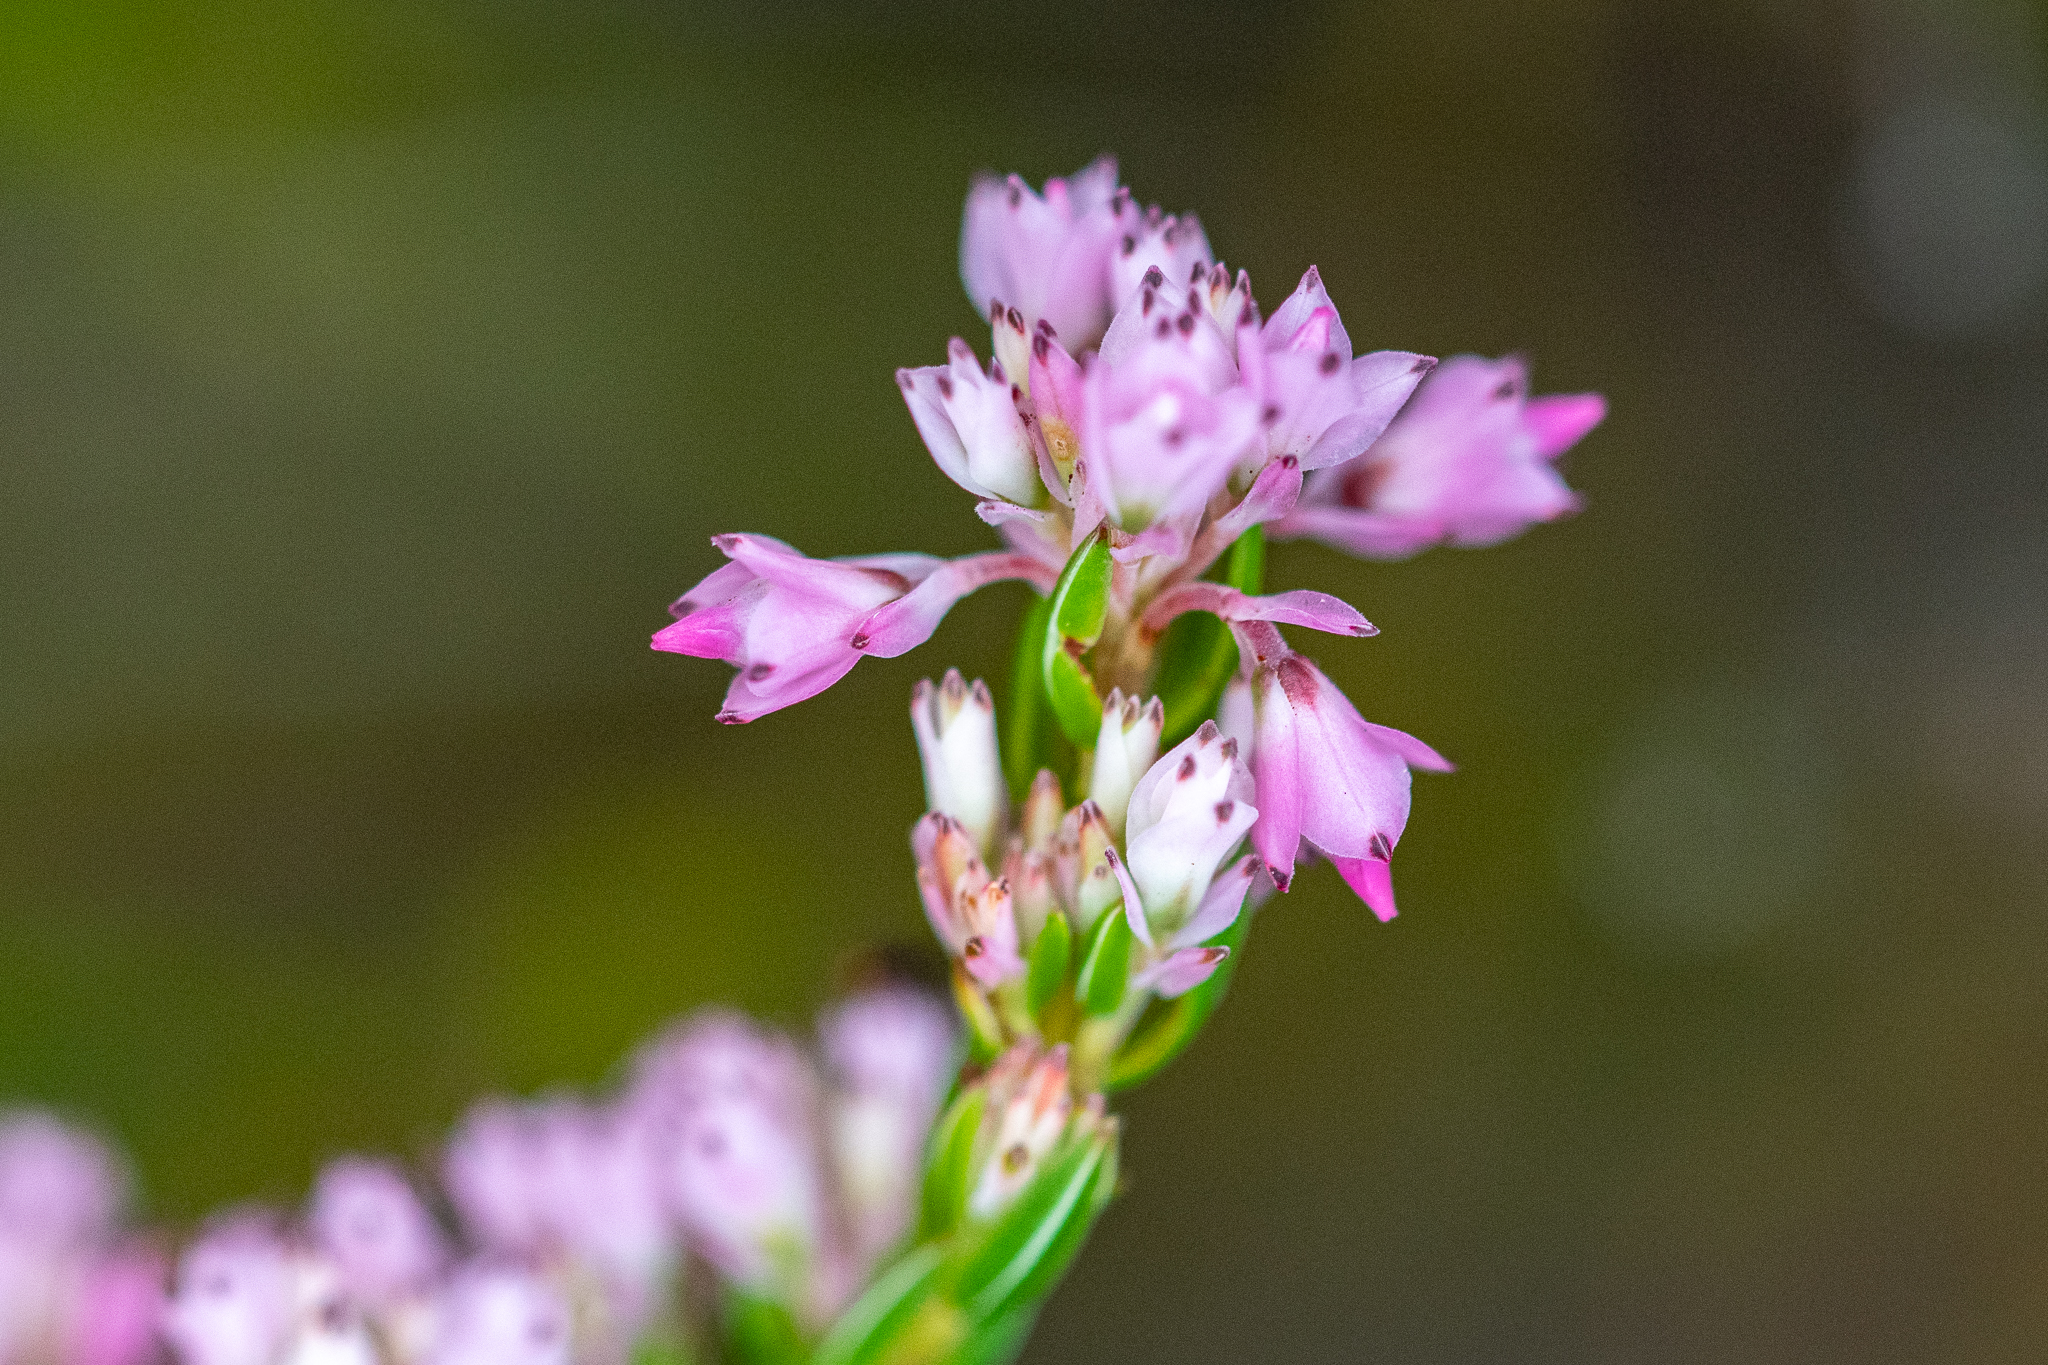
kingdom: Plantae
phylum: Tracheophyta
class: Magnoliopsida
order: Ericales
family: Ericaceae
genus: Erica
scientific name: Erica corifolia
